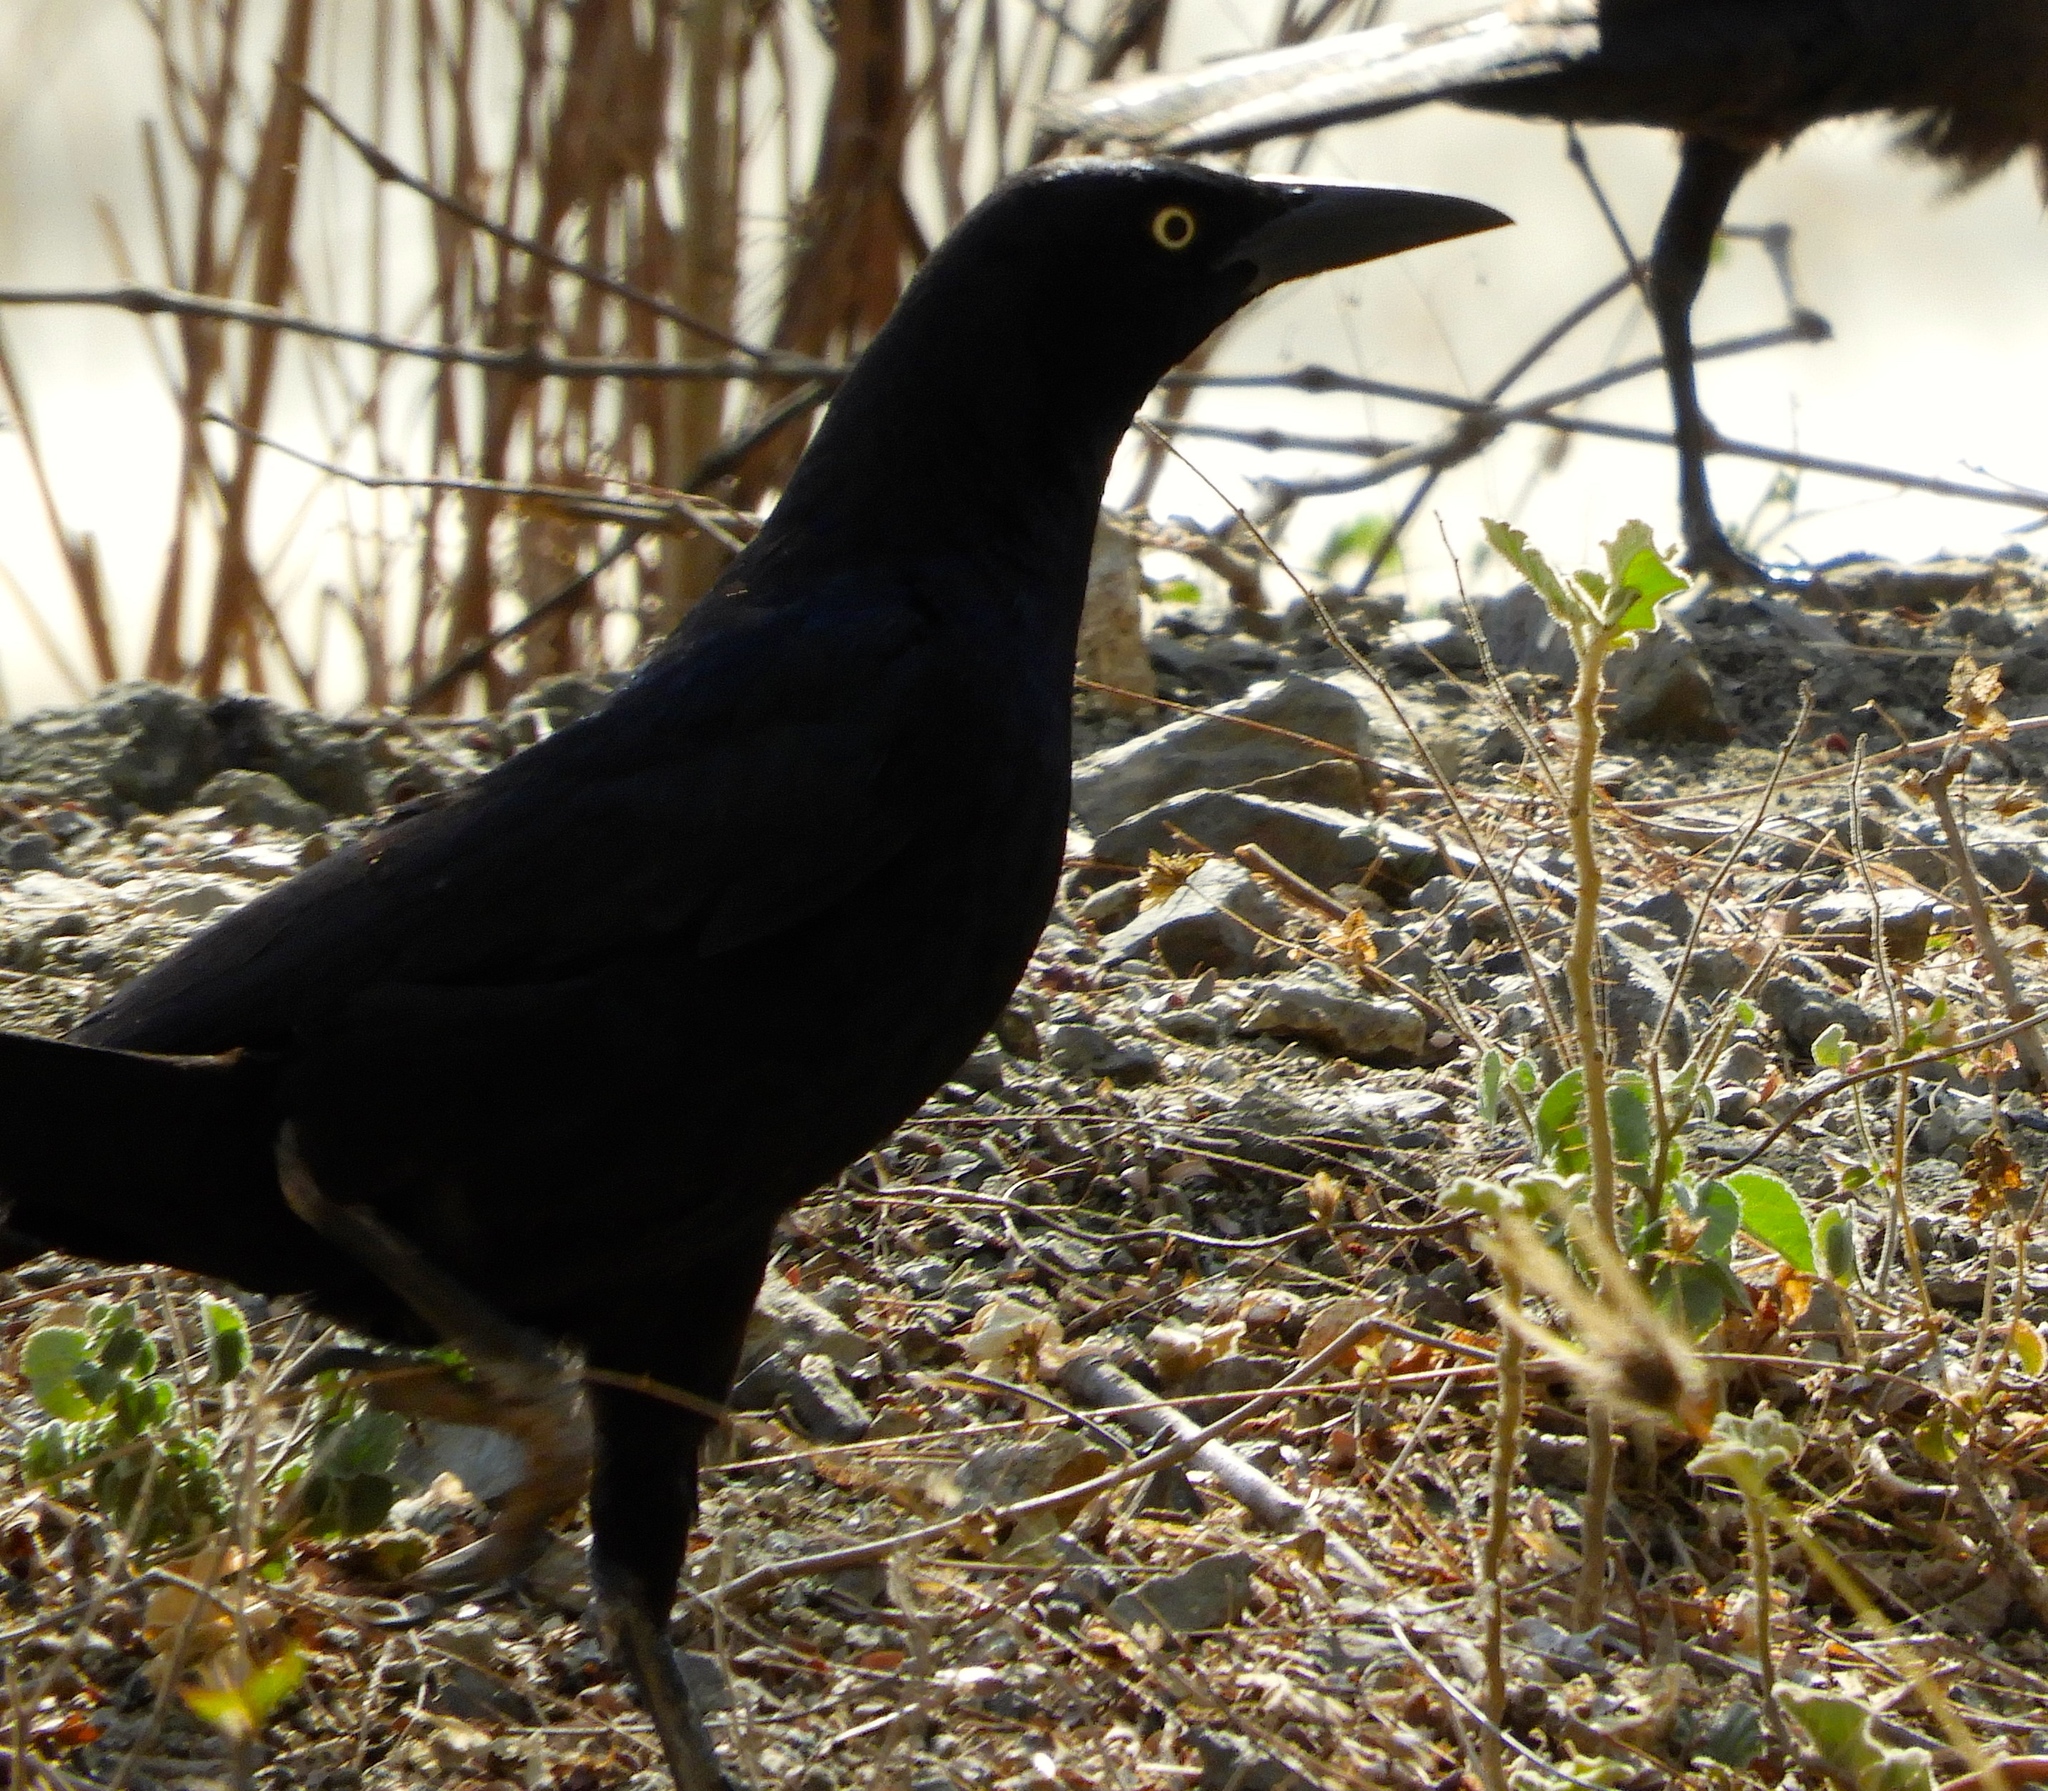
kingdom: Animalia
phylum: Chordata
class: Aves
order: Passeriformes
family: Icteridae
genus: Quiscalus
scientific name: Quiscalus mexicanus
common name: Great-tailed grackle
